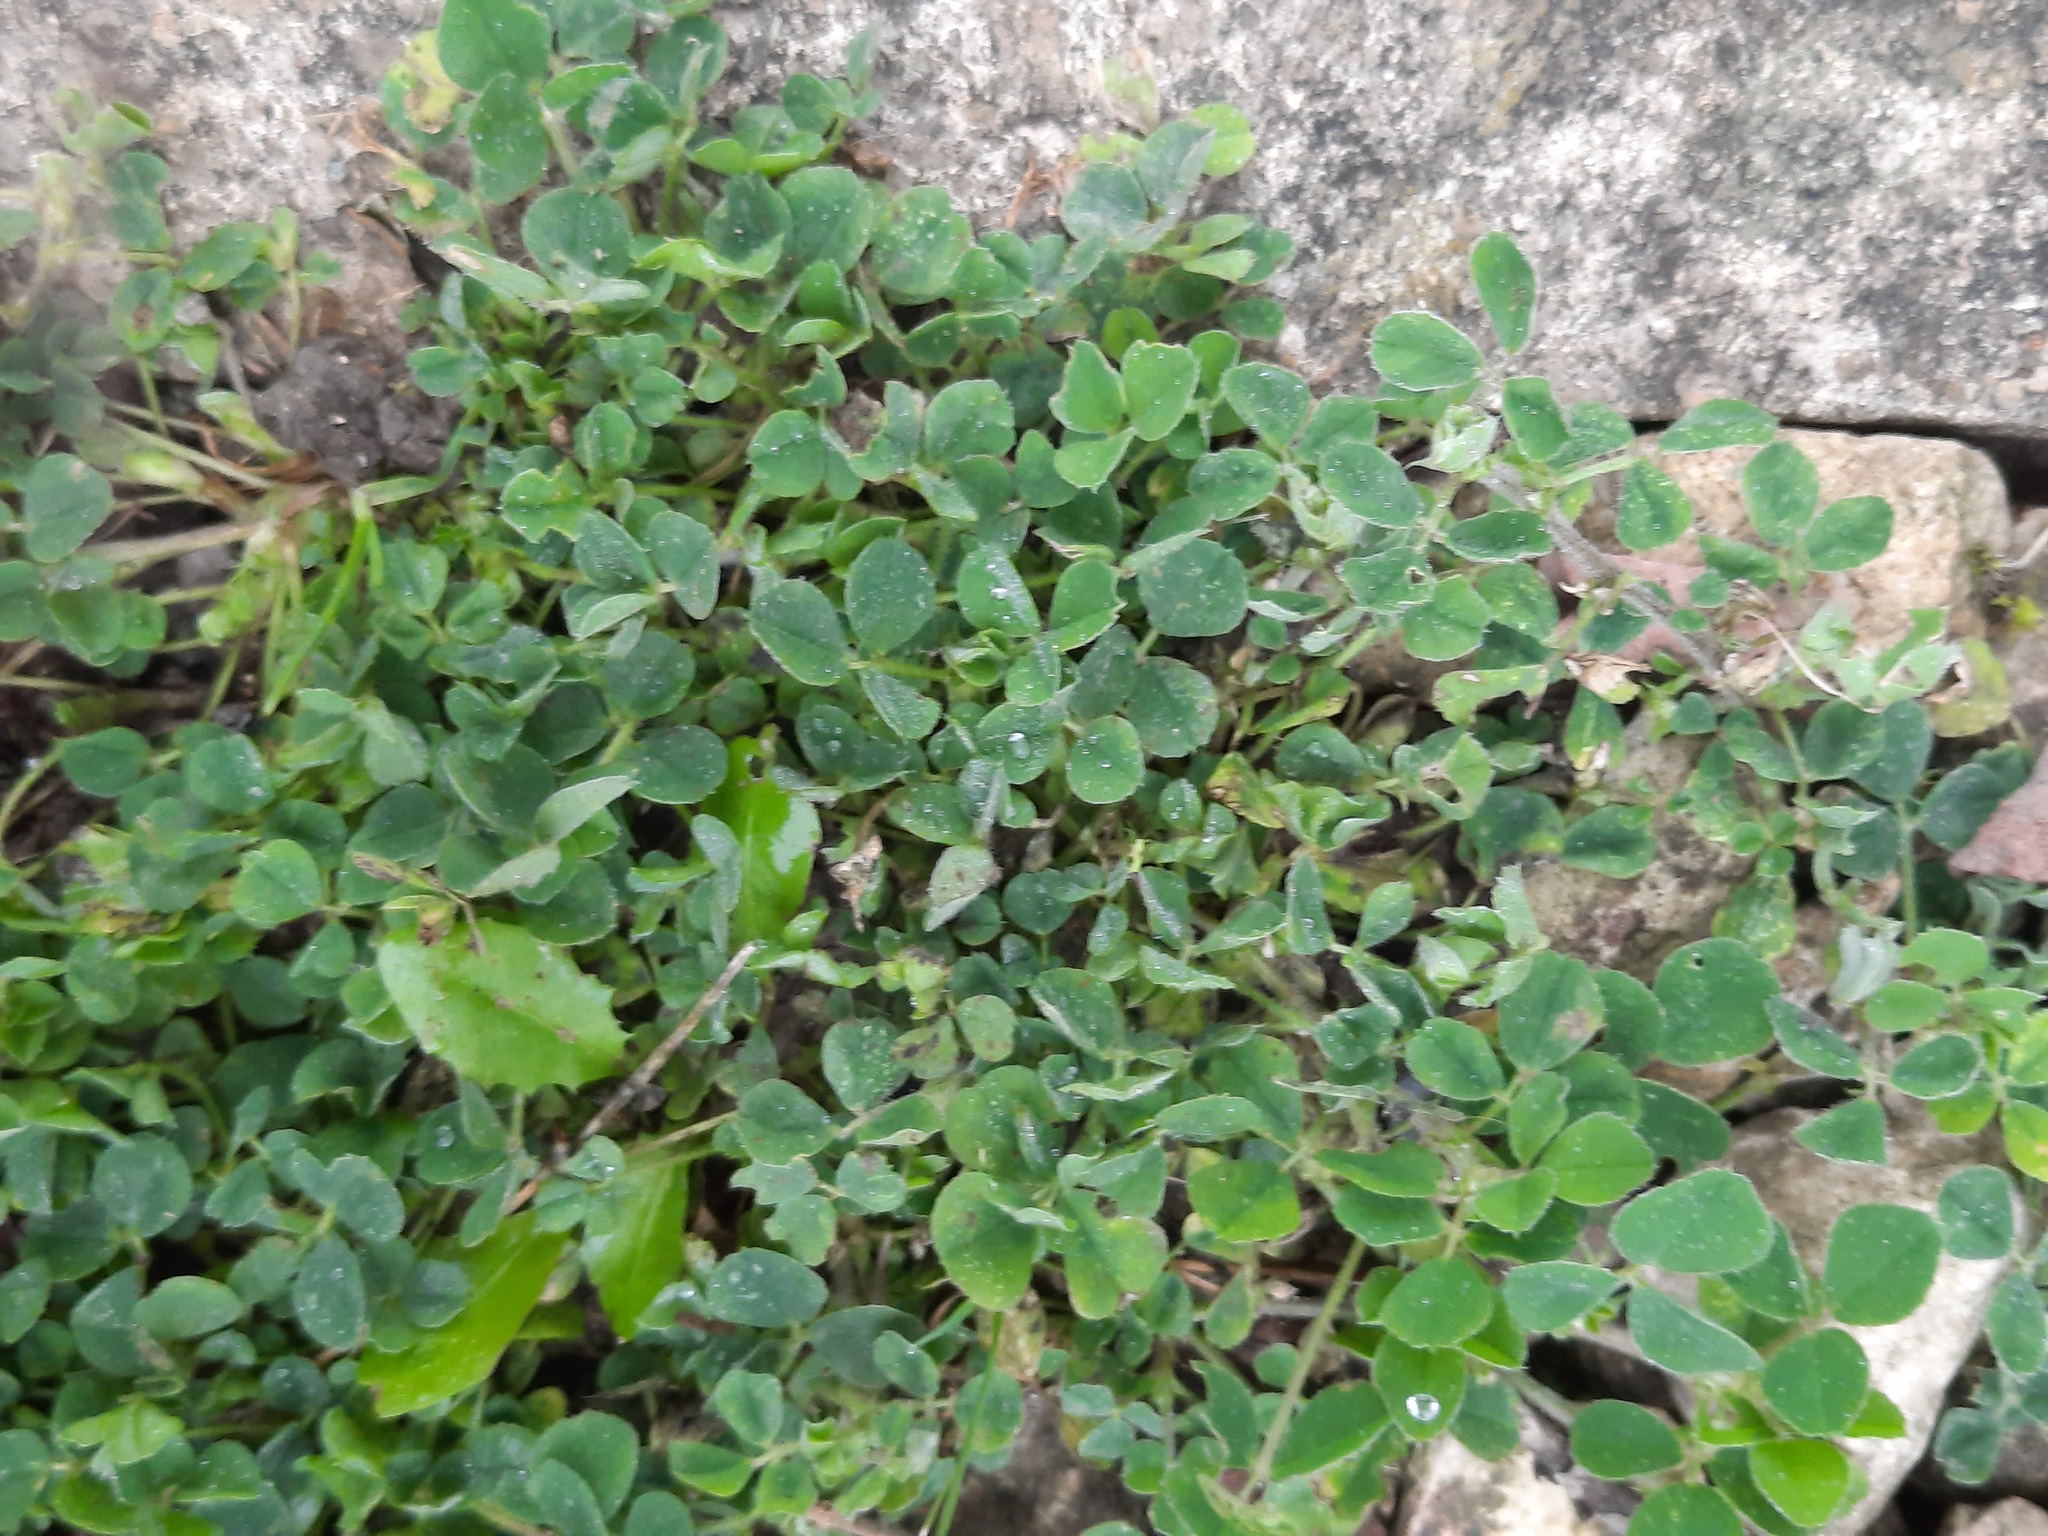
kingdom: Plantae
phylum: Tracheophyta
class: Magnoliopsida
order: Fabales
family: Fabaceae
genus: Medicago
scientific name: Medicago lupulina
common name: Black medick
